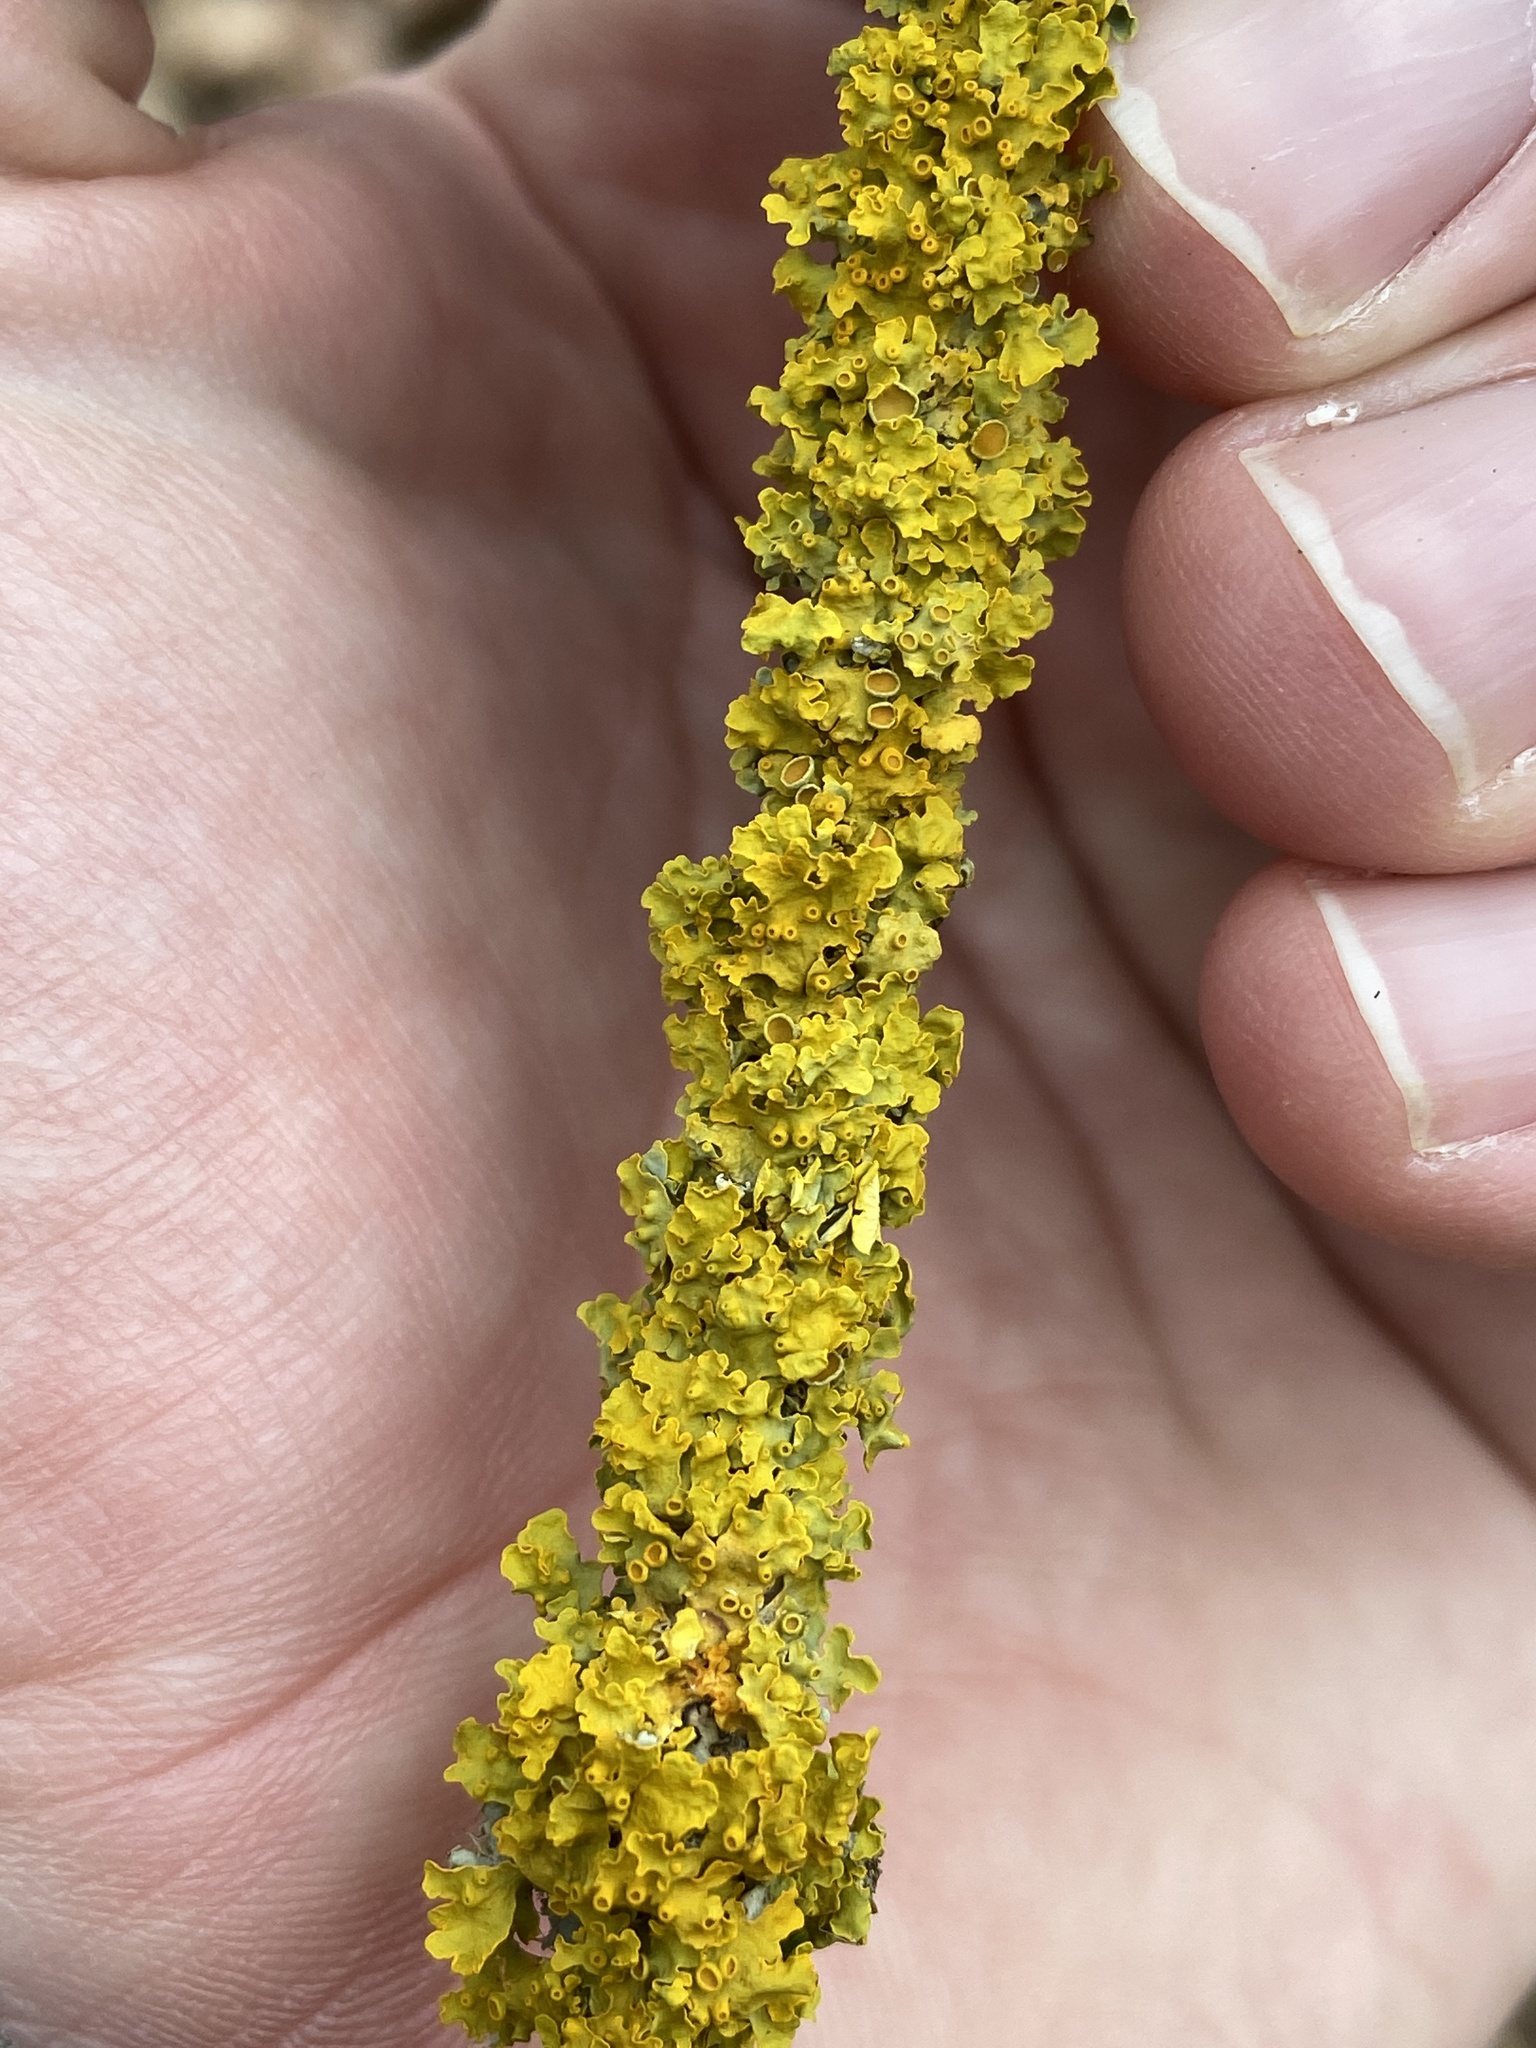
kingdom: Fungi
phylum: Ascomycota
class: Lecanoromycetes
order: Teloschistales
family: Teloschistaceae
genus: Xanthoria
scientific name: Xanthoria parietina
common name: Common orange lichen
